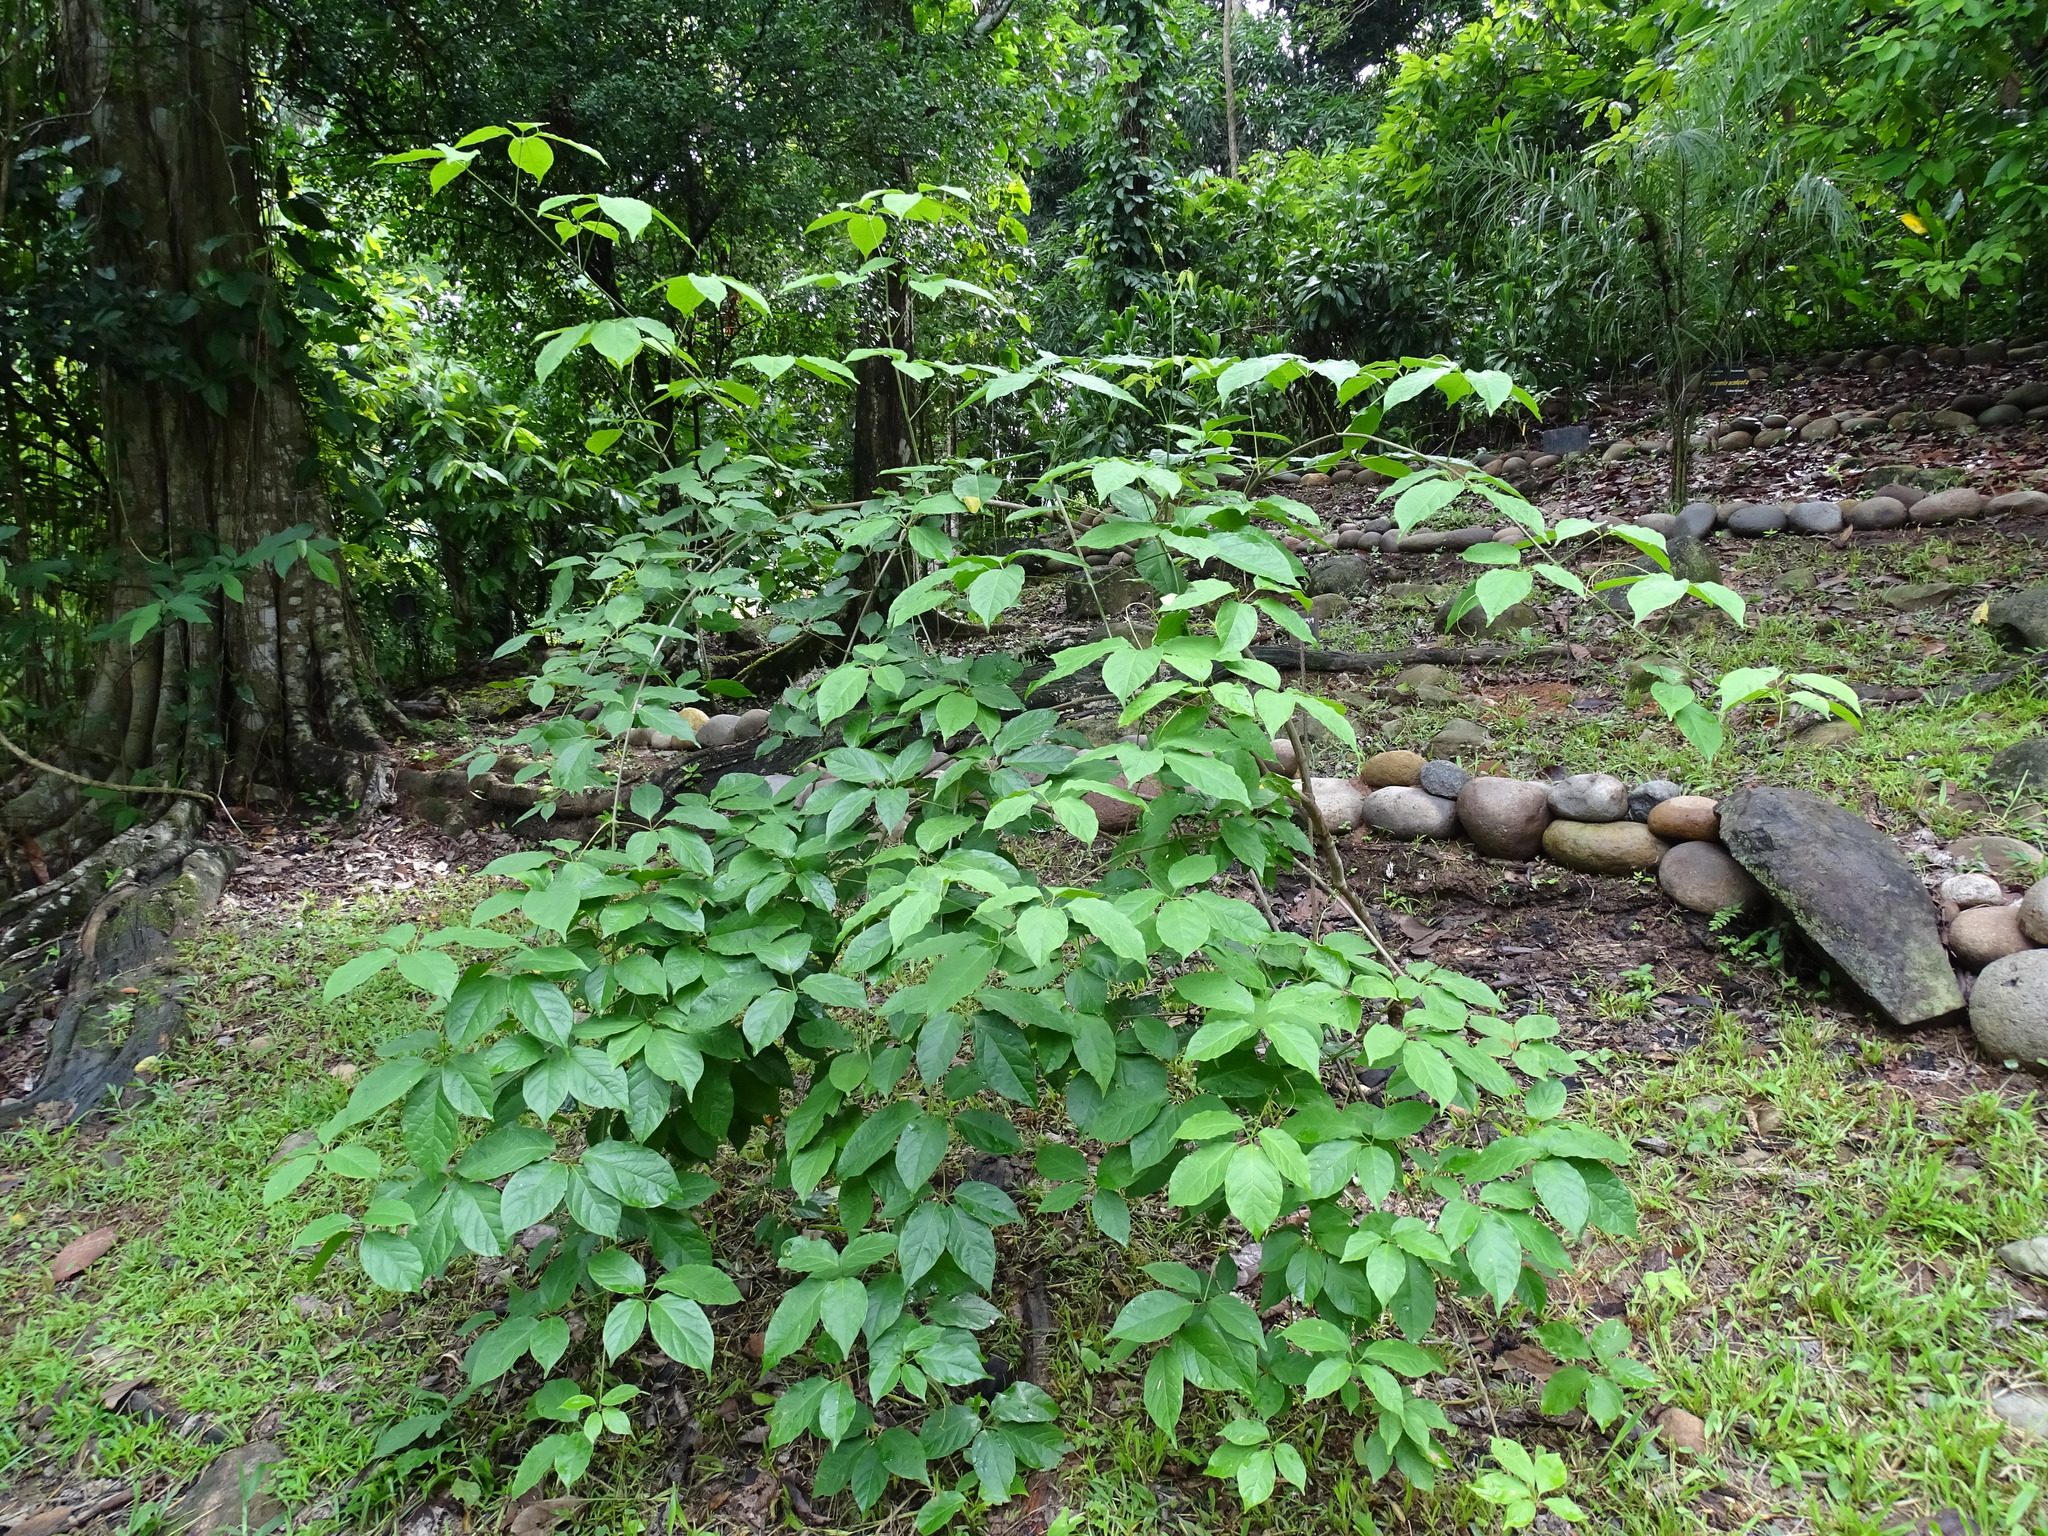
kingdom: Plantae
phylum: Tracheophyta
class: Magnoliopsida
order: Lamiales
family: Bignoniaceae
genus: Anemopaegma
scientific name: Anemopaegma orbiculatum
